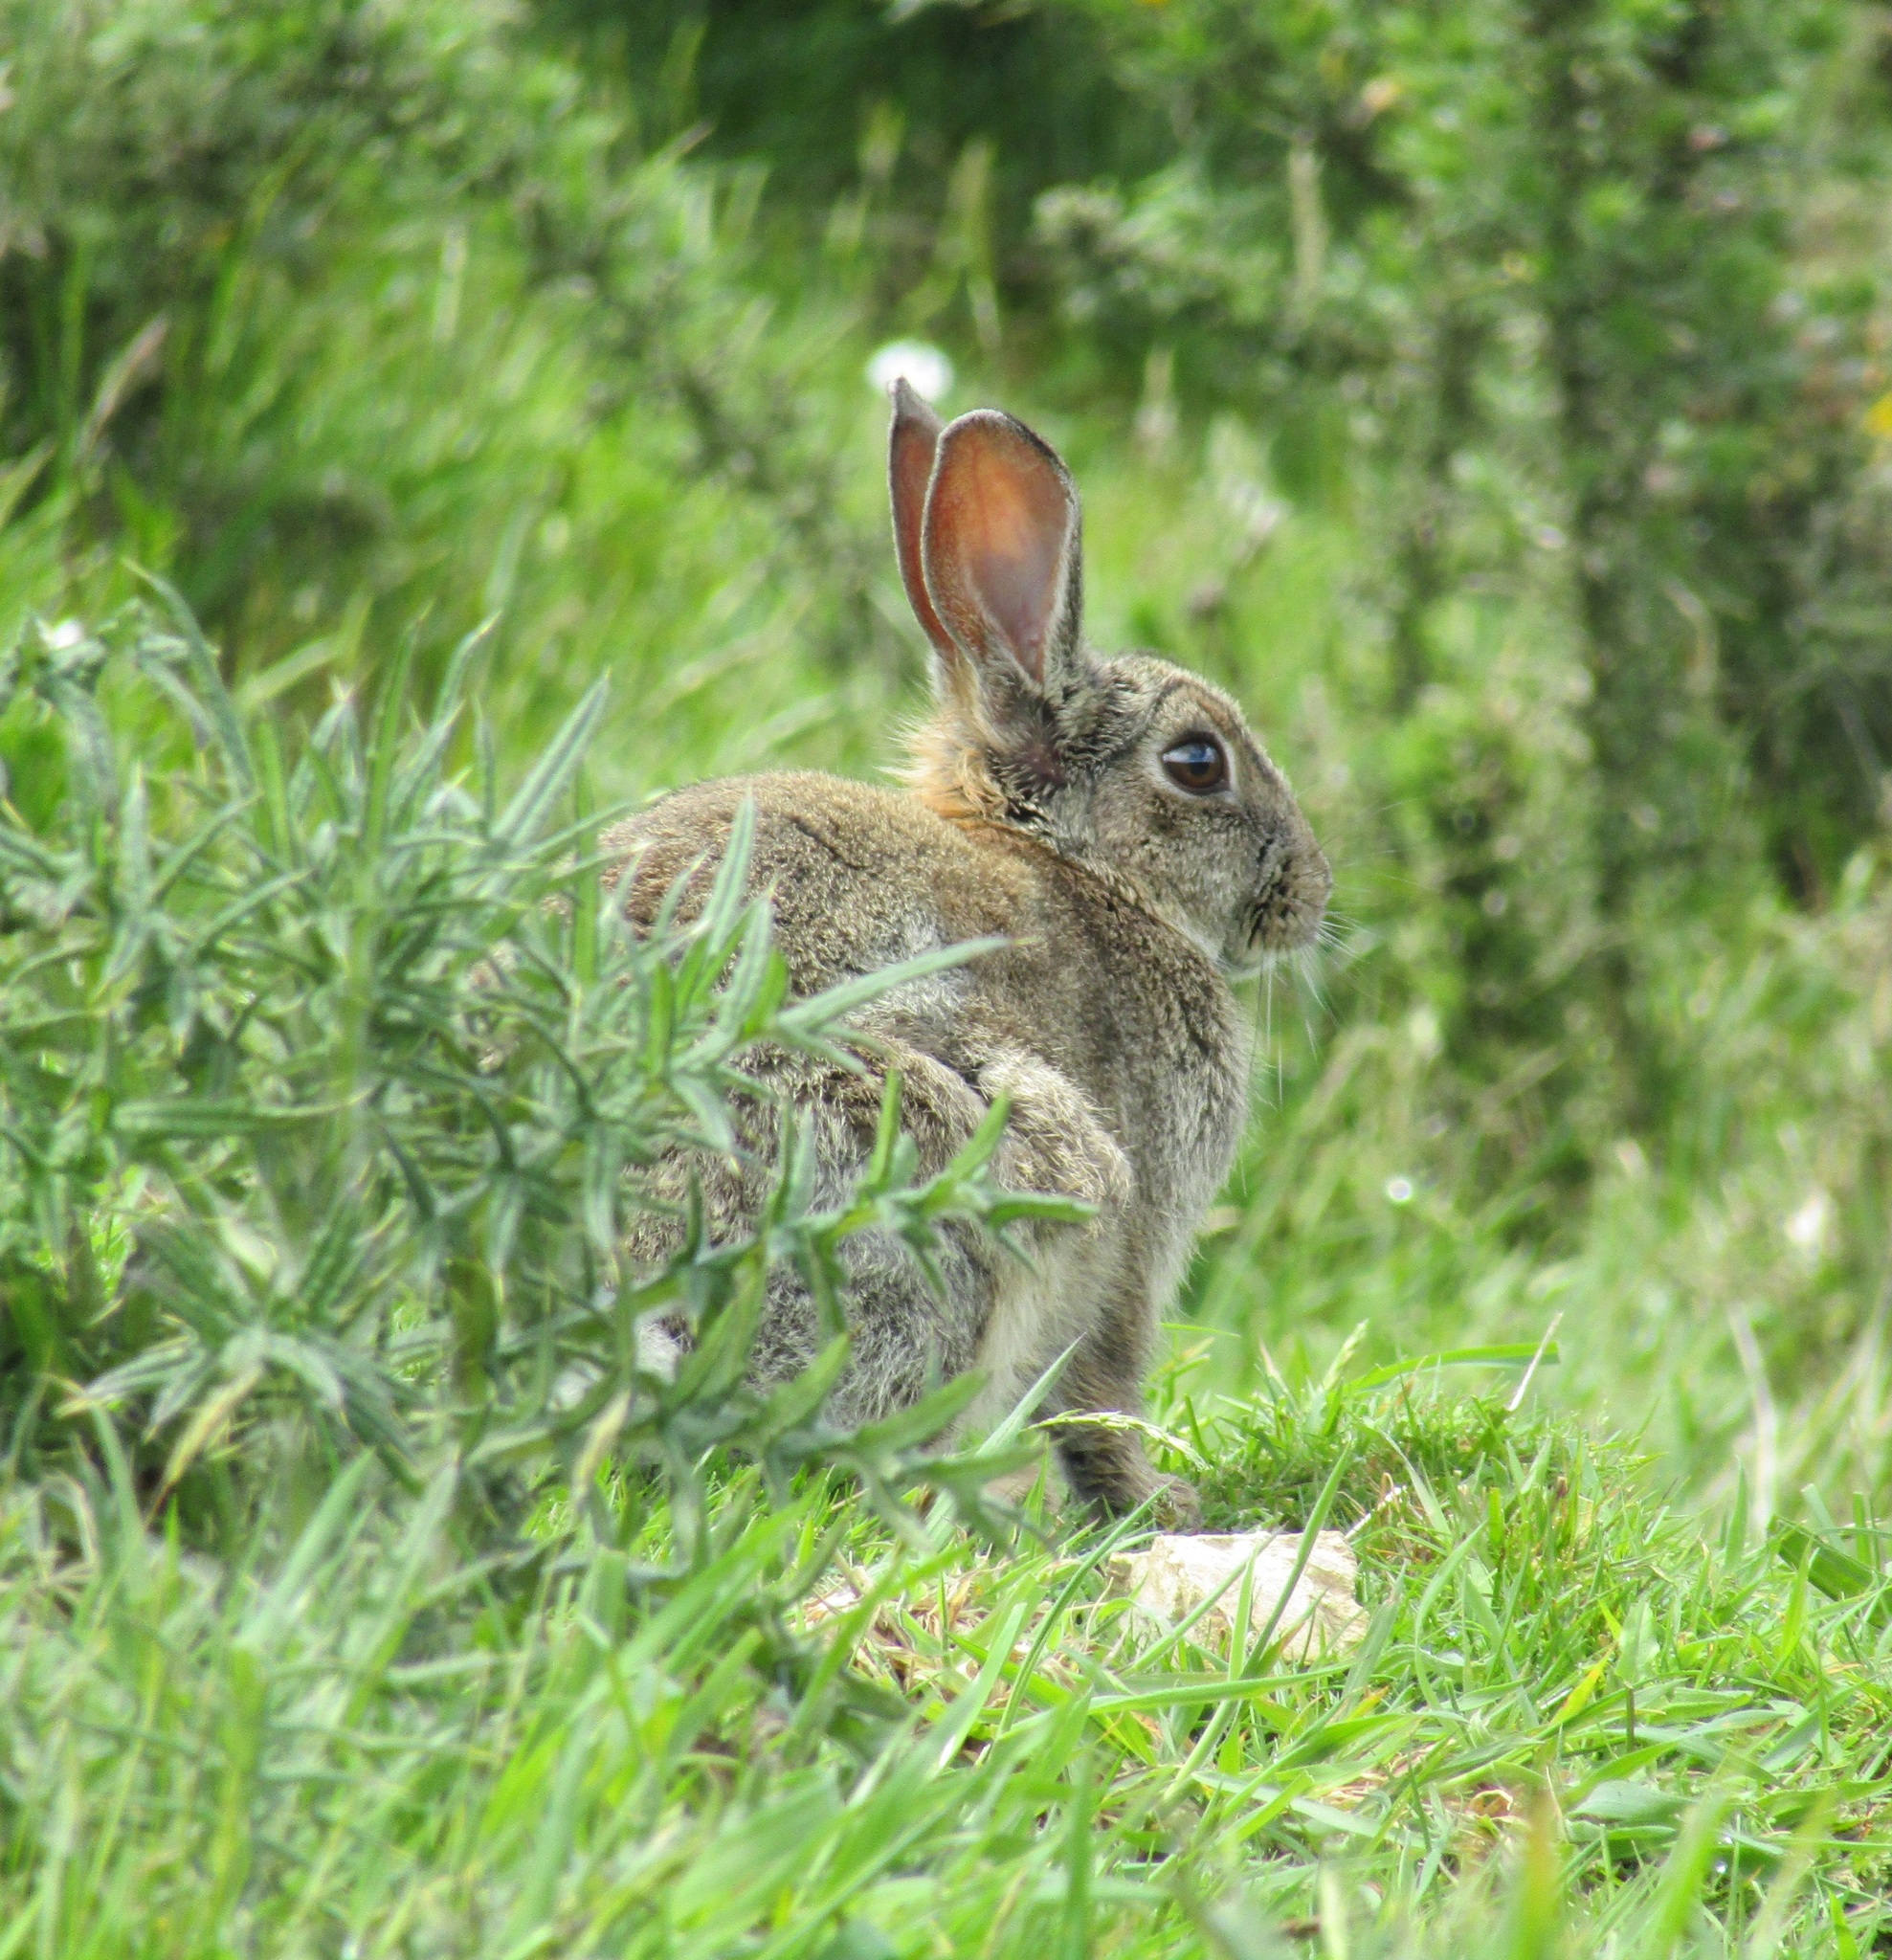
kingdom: Animalia
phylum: Chordata
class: Mammalia
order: Lagomorpha
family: Leporidae
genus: Oryctolagus
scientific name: Oryctolagus cuniculus
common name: European rabbit
